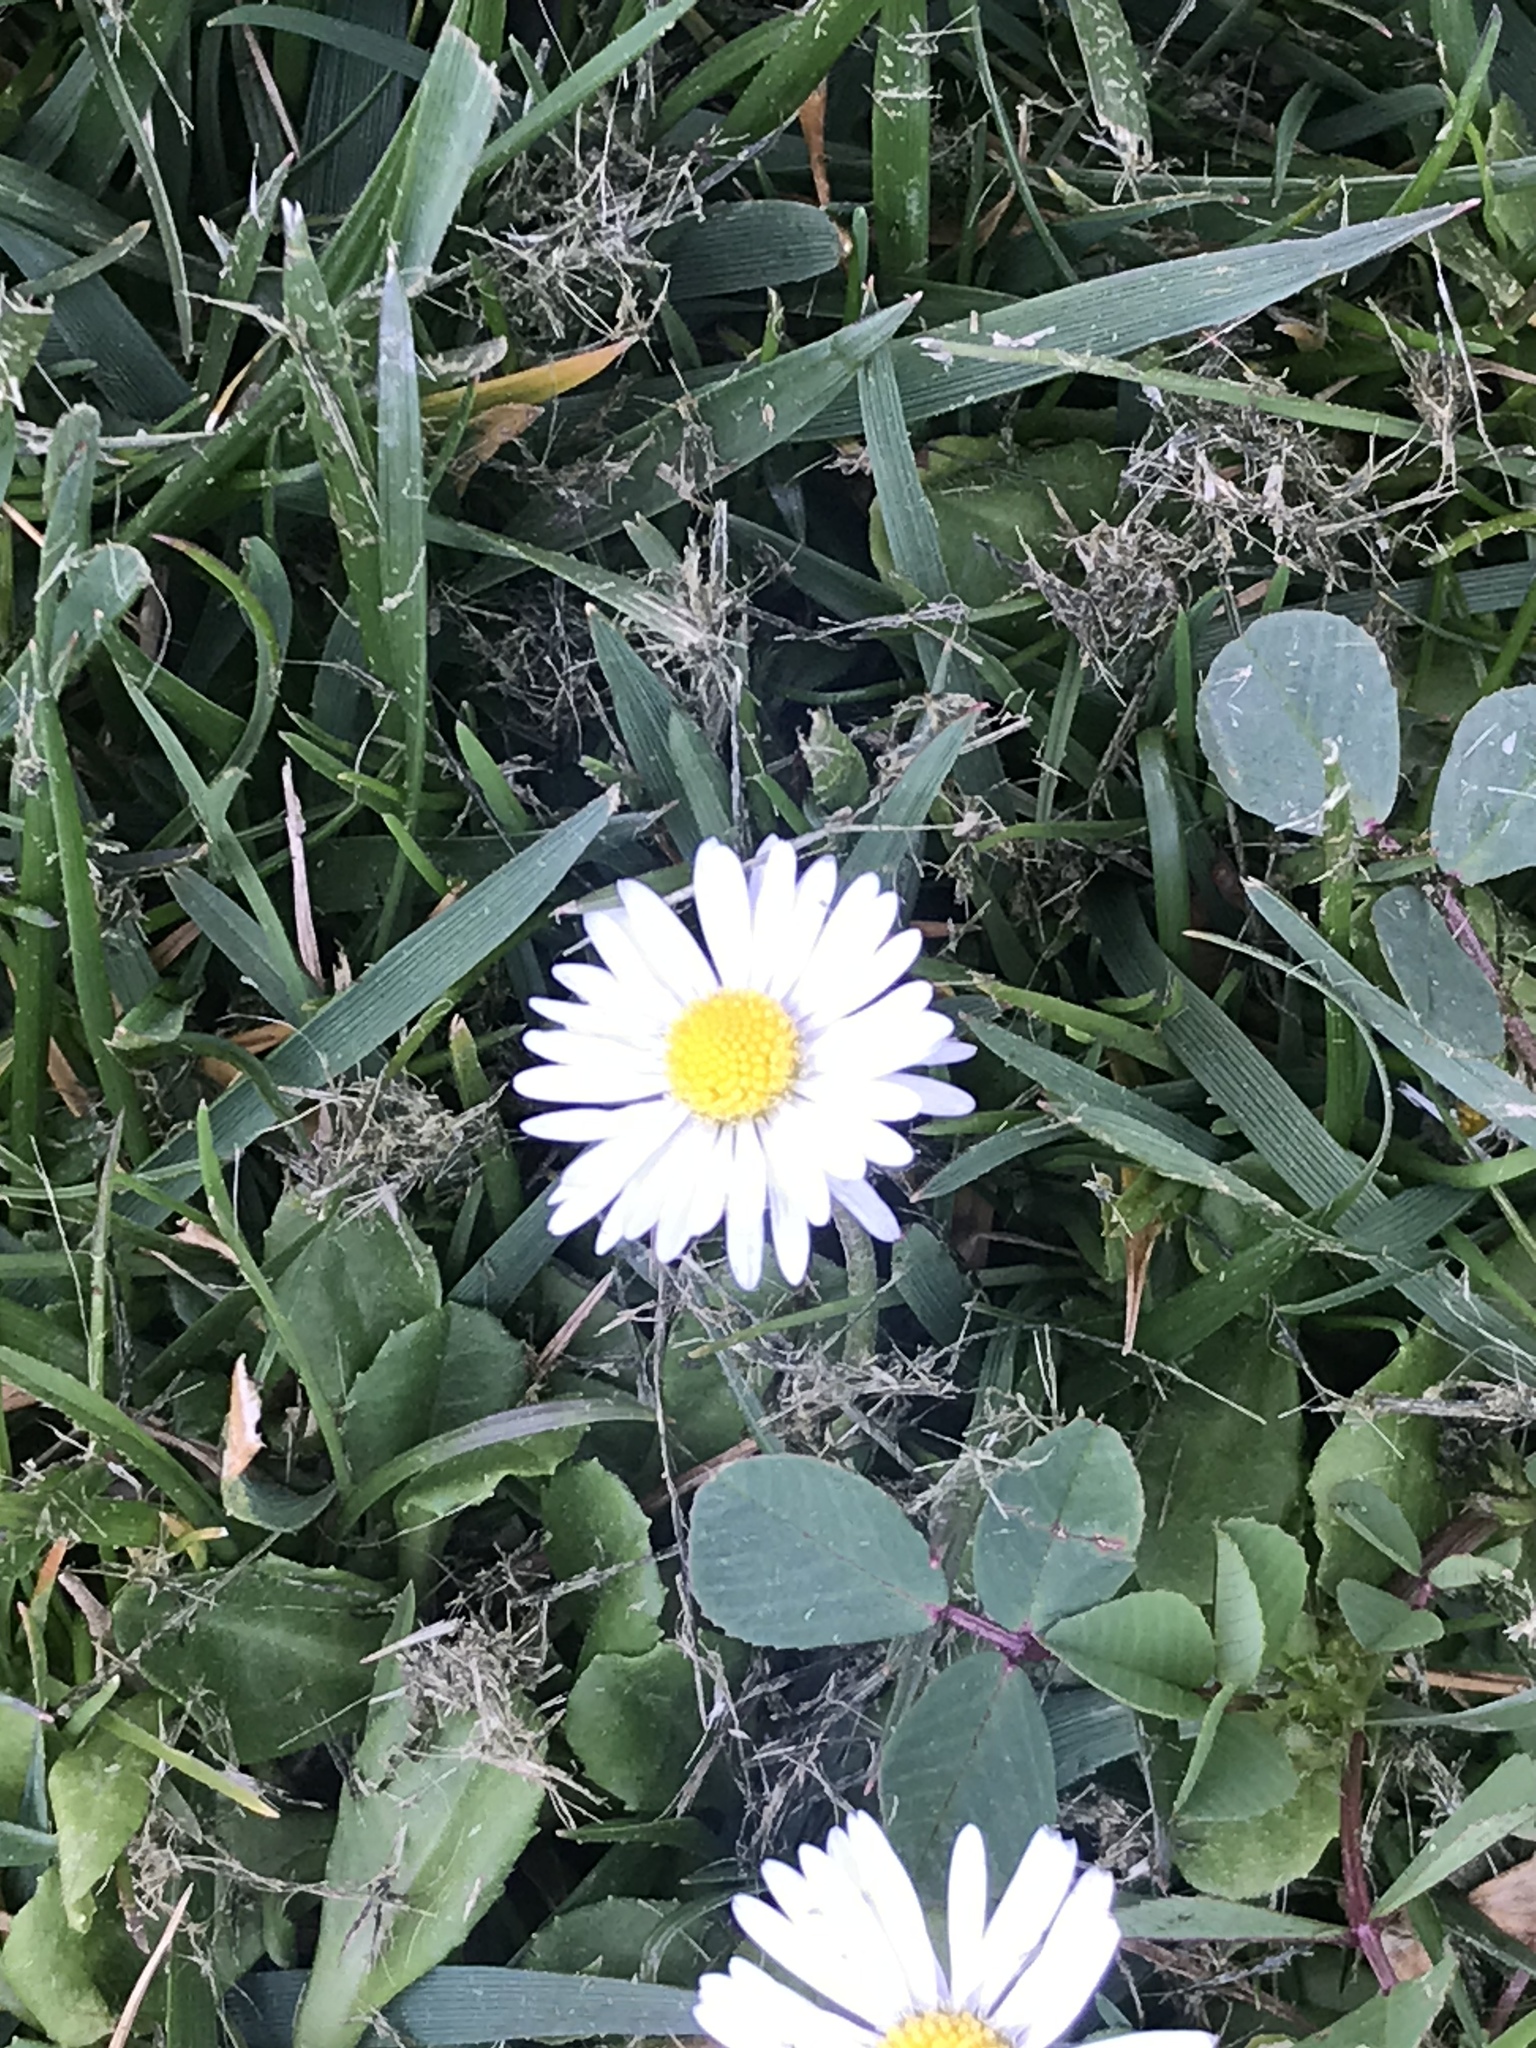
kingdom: Plantae
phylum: Tracheophyta
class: Magnoliopsida
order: Asterales
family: Asteraceae
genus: Bellis
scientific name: Bellis perennis
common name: Lawndaisy
